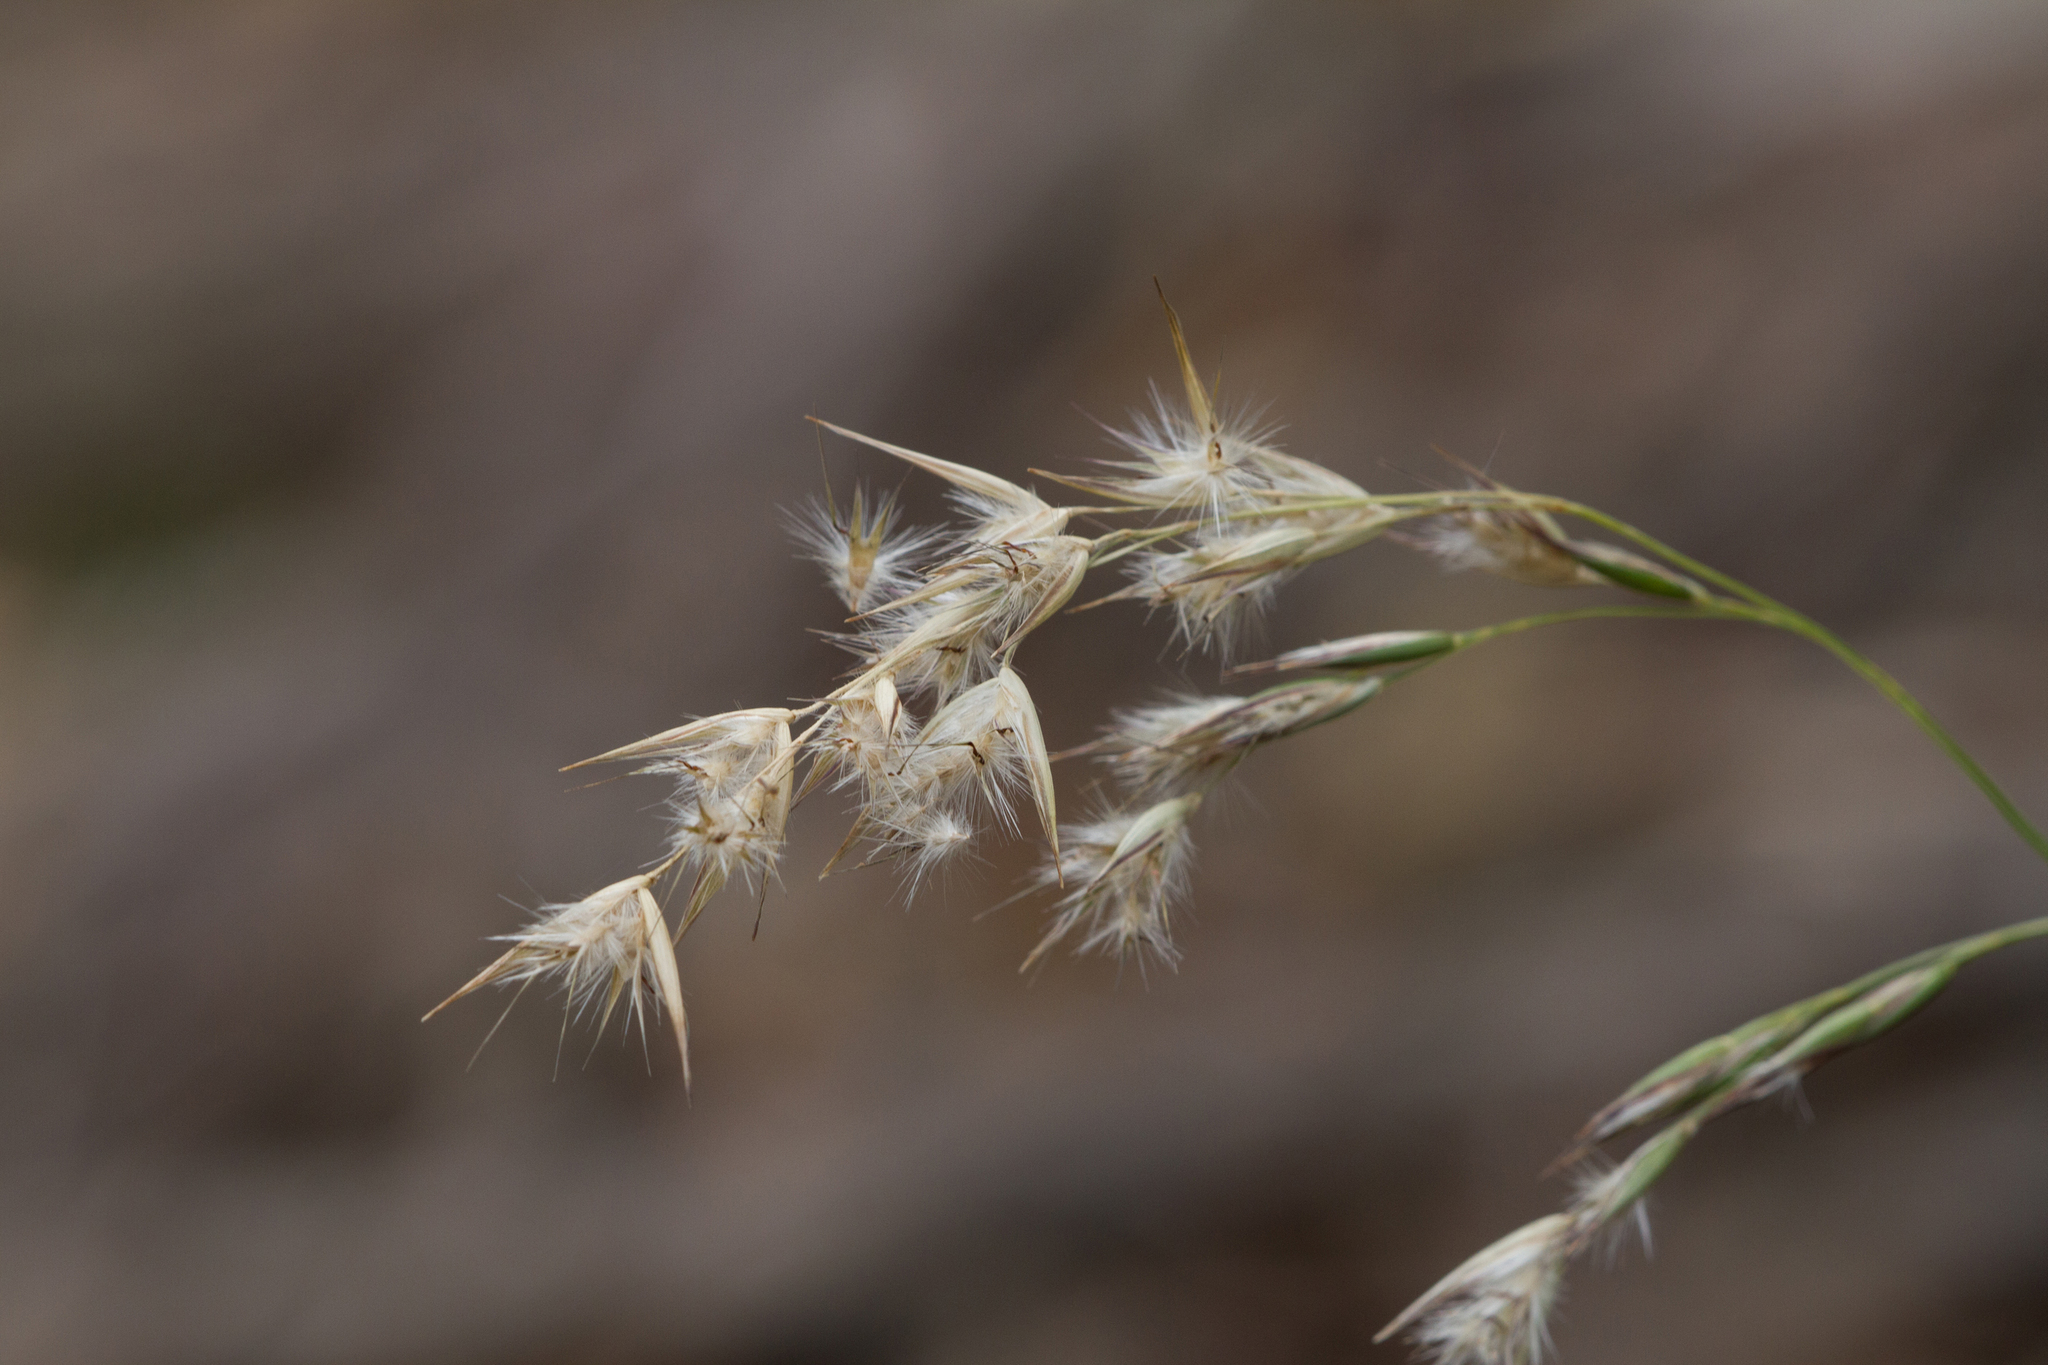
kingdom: Plantae
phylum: Tracheophyta
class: Liliopsida
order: Poales
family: Poaceae
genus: Rytidosperma
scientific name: Rytidosperma tenuius
